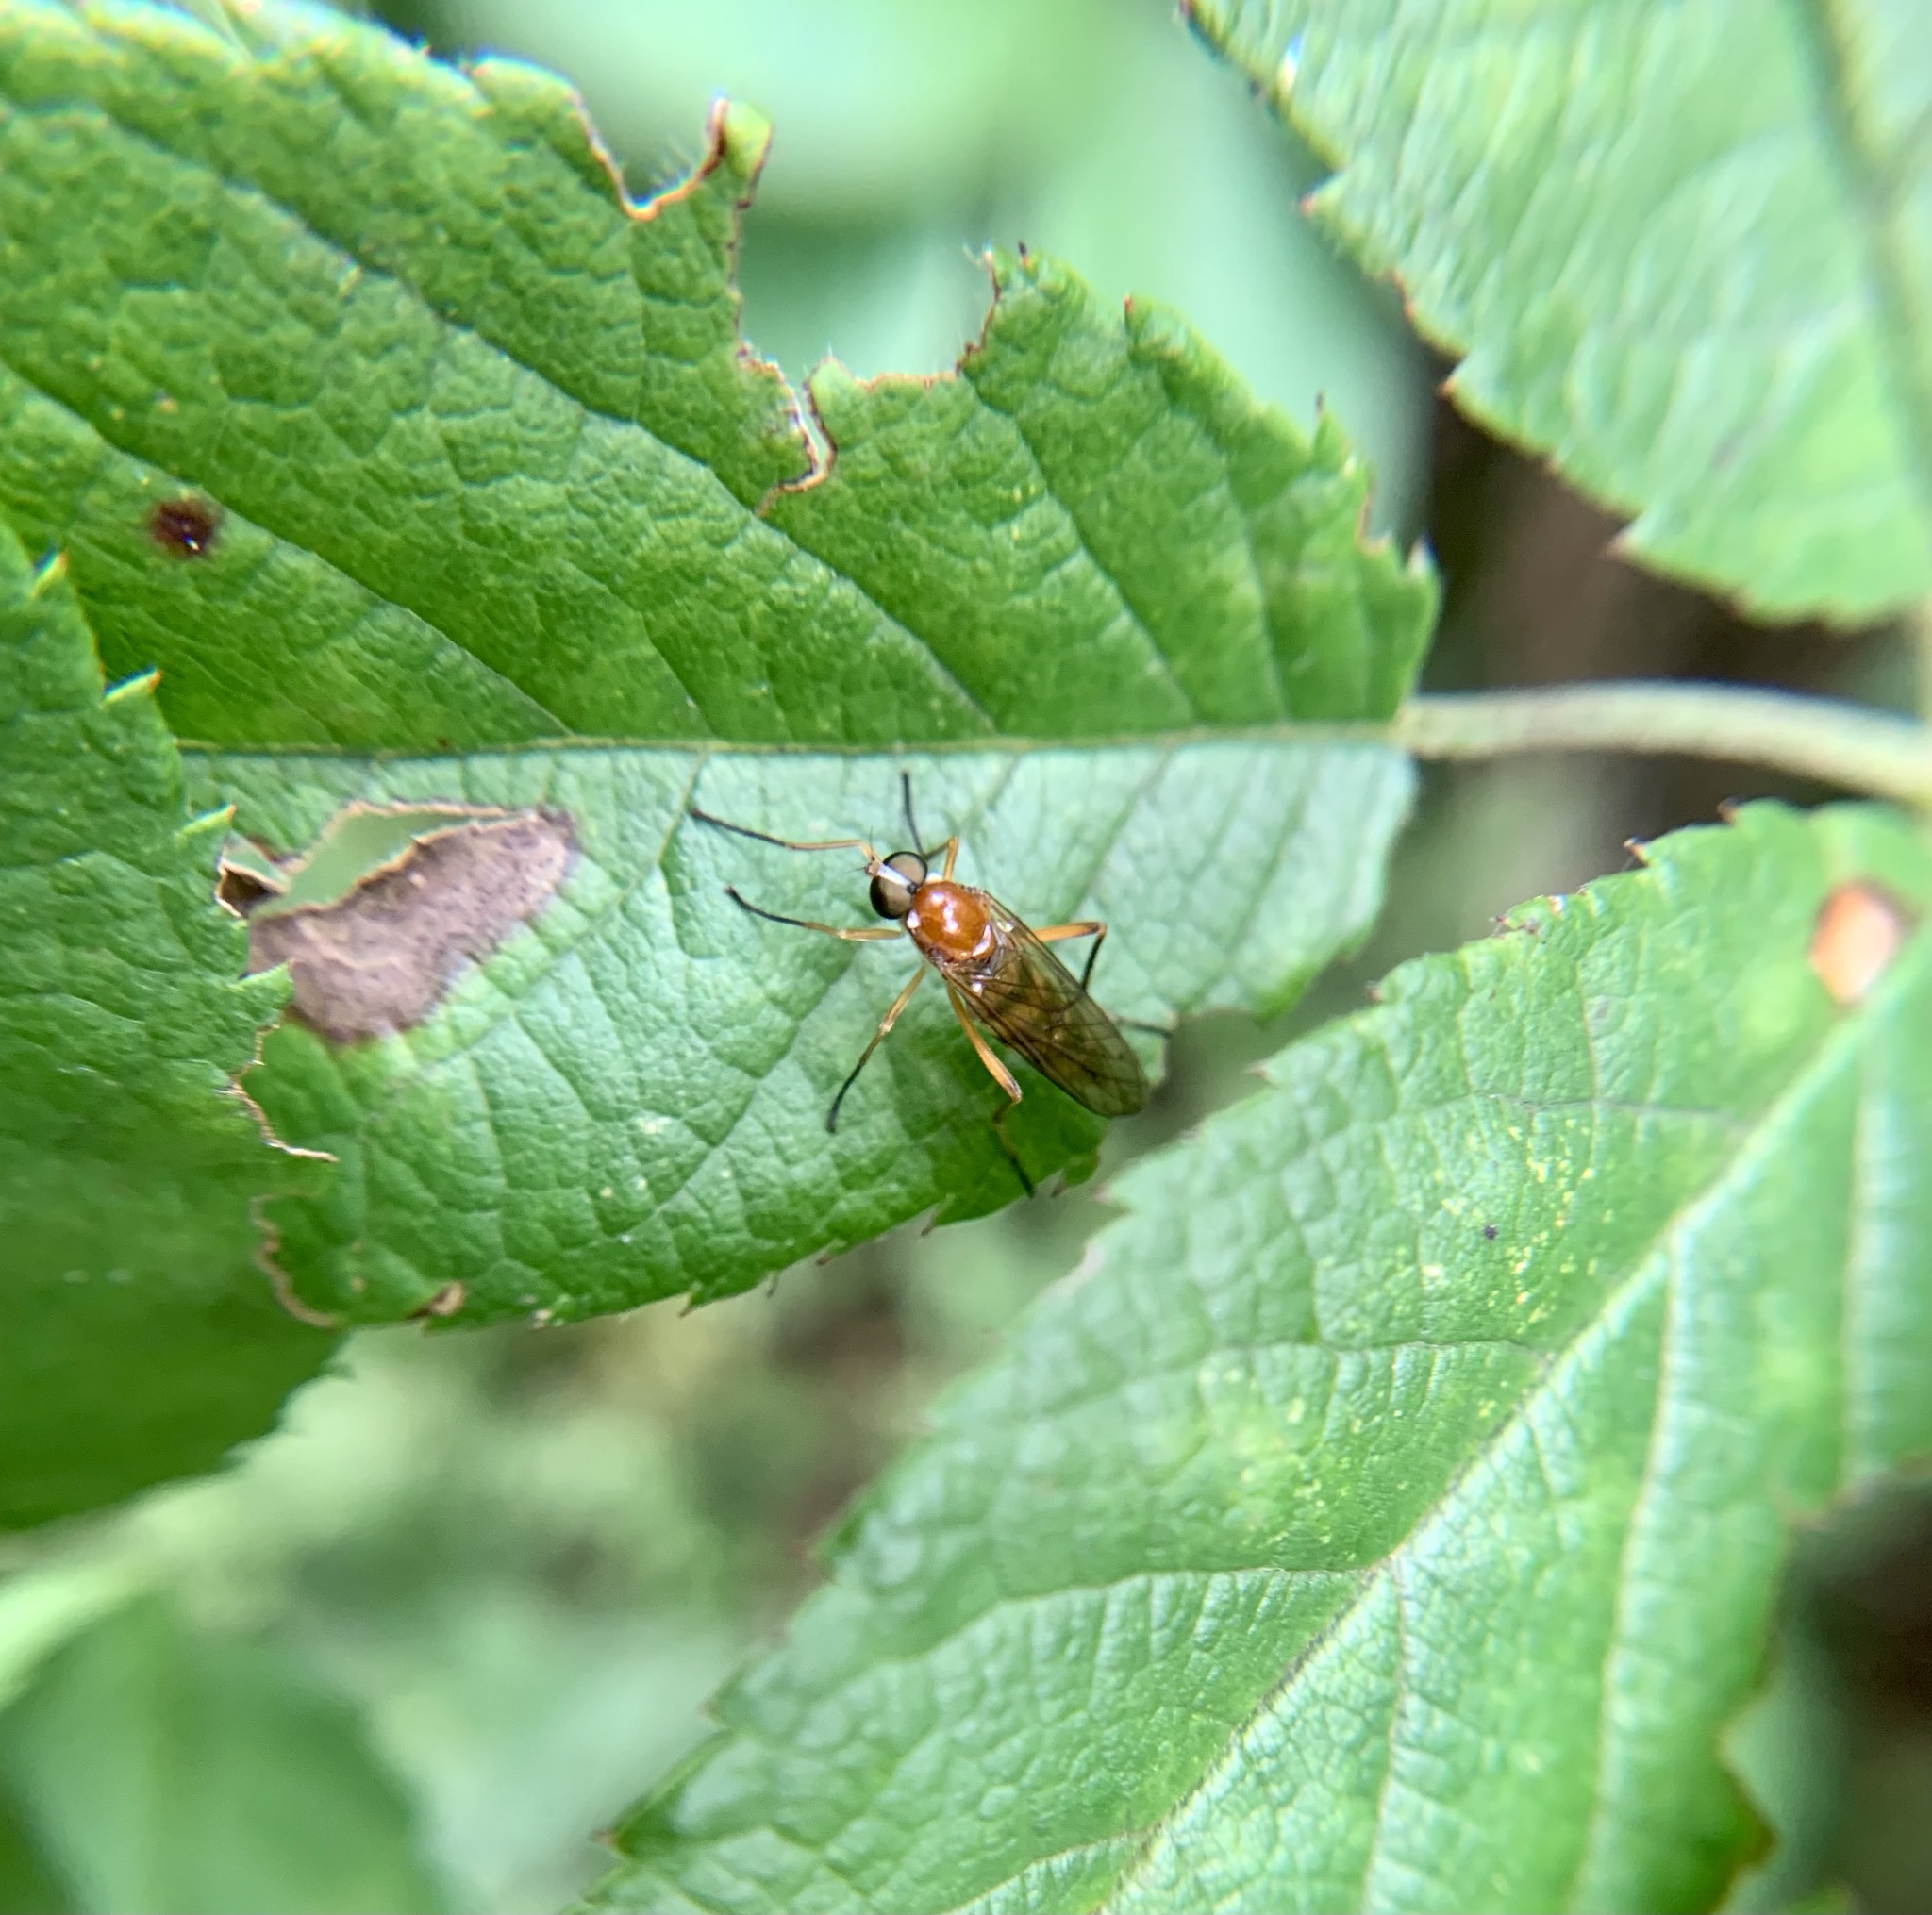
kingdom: Animalia
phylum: Arthropoda
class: Insecta
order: Diptera
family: Xylophagidae
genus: Dialysis
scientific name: Dialysis elongata
